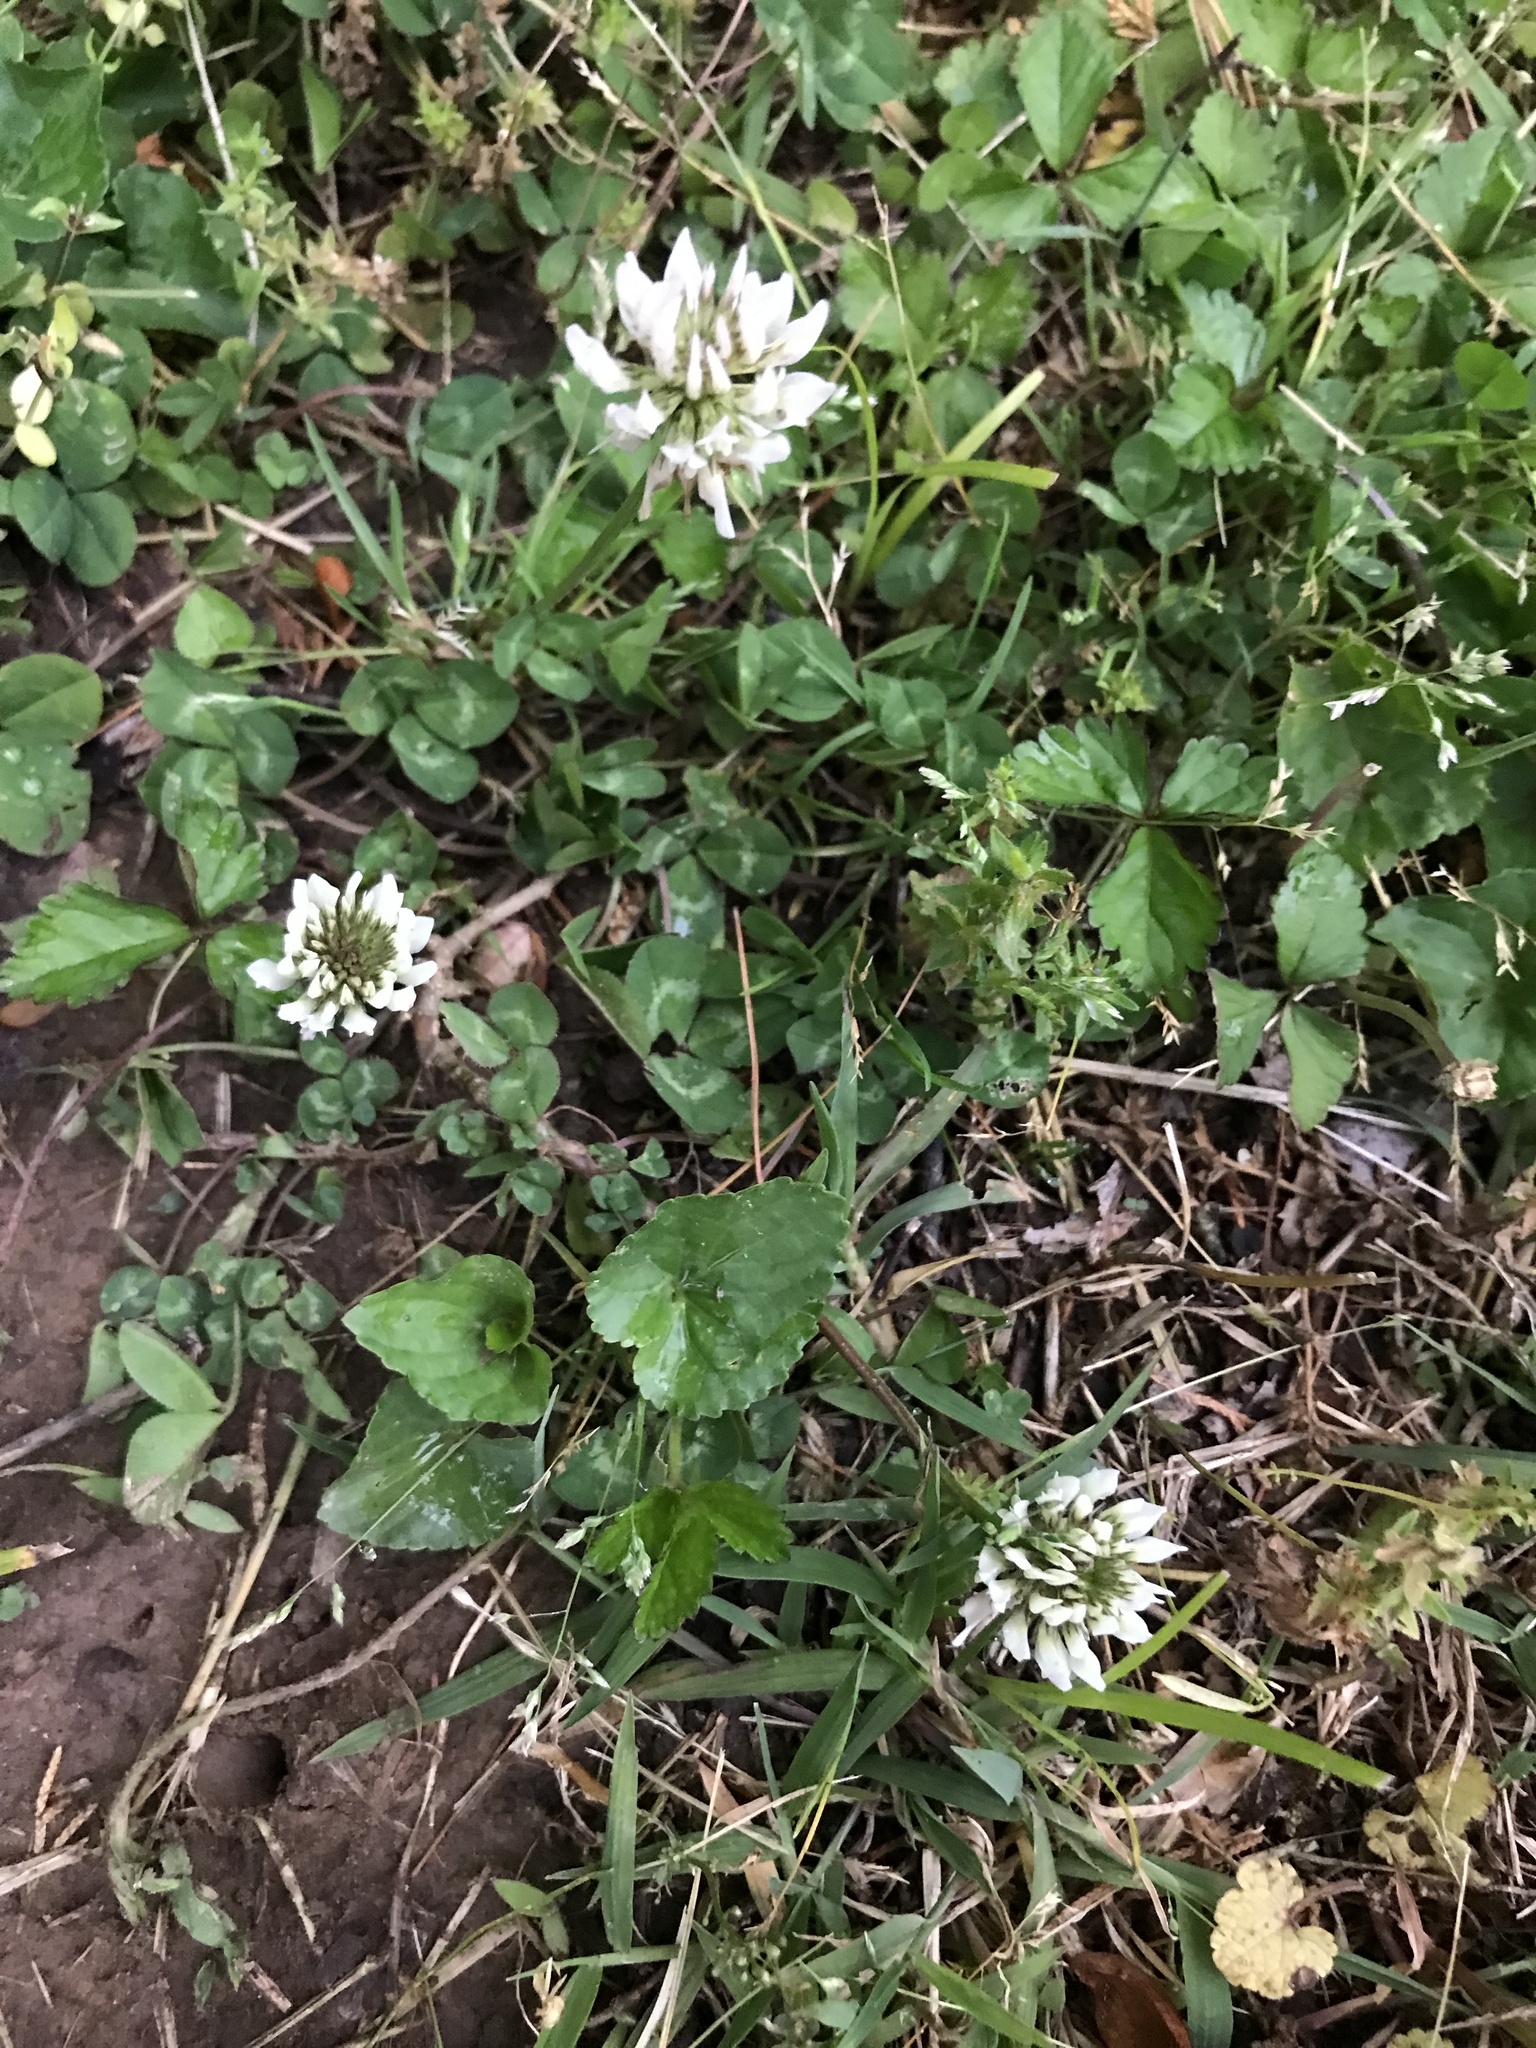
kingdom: Plantae
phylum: Tracheophyta
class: Magnoliopsida
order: Fabales
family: Fabaceae
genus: Trifolium
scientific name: Trifolium repens
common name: White clover
